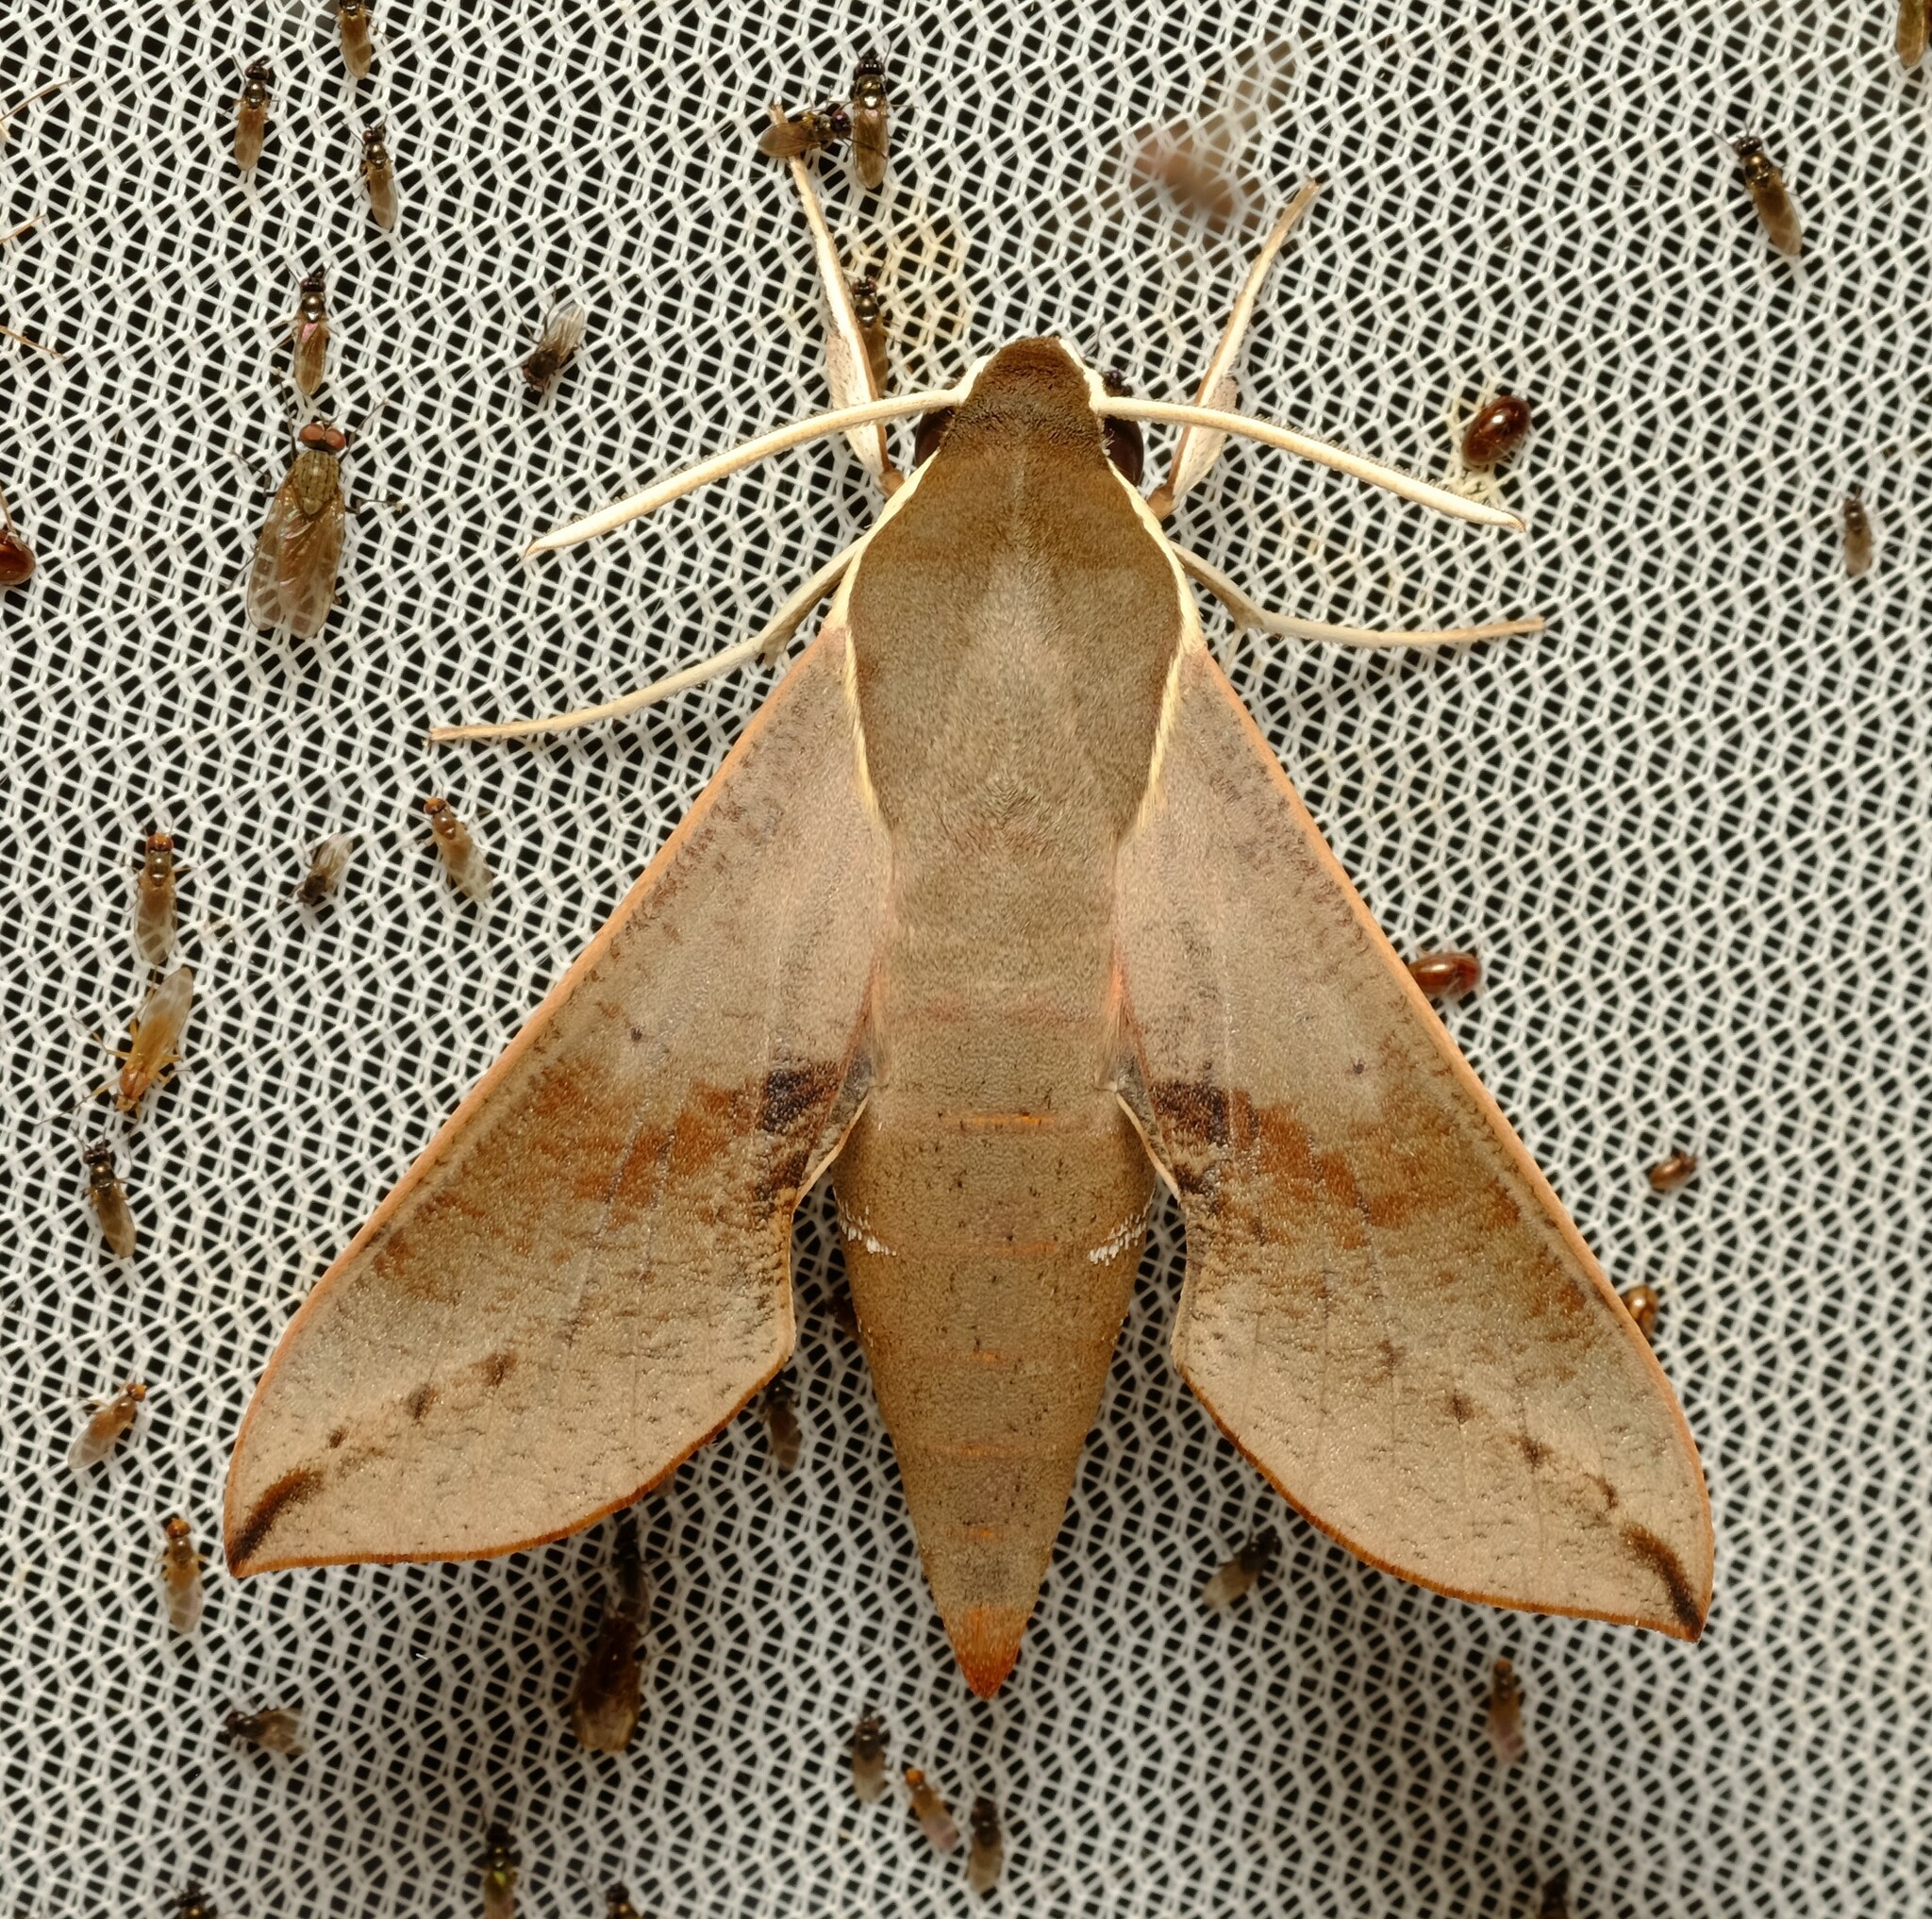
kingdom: Animalia
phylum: Arthropoda
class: Insecta
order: Lepidoptera
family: Sphingidae
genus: Hippotion
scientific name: Hippotion scrofa
